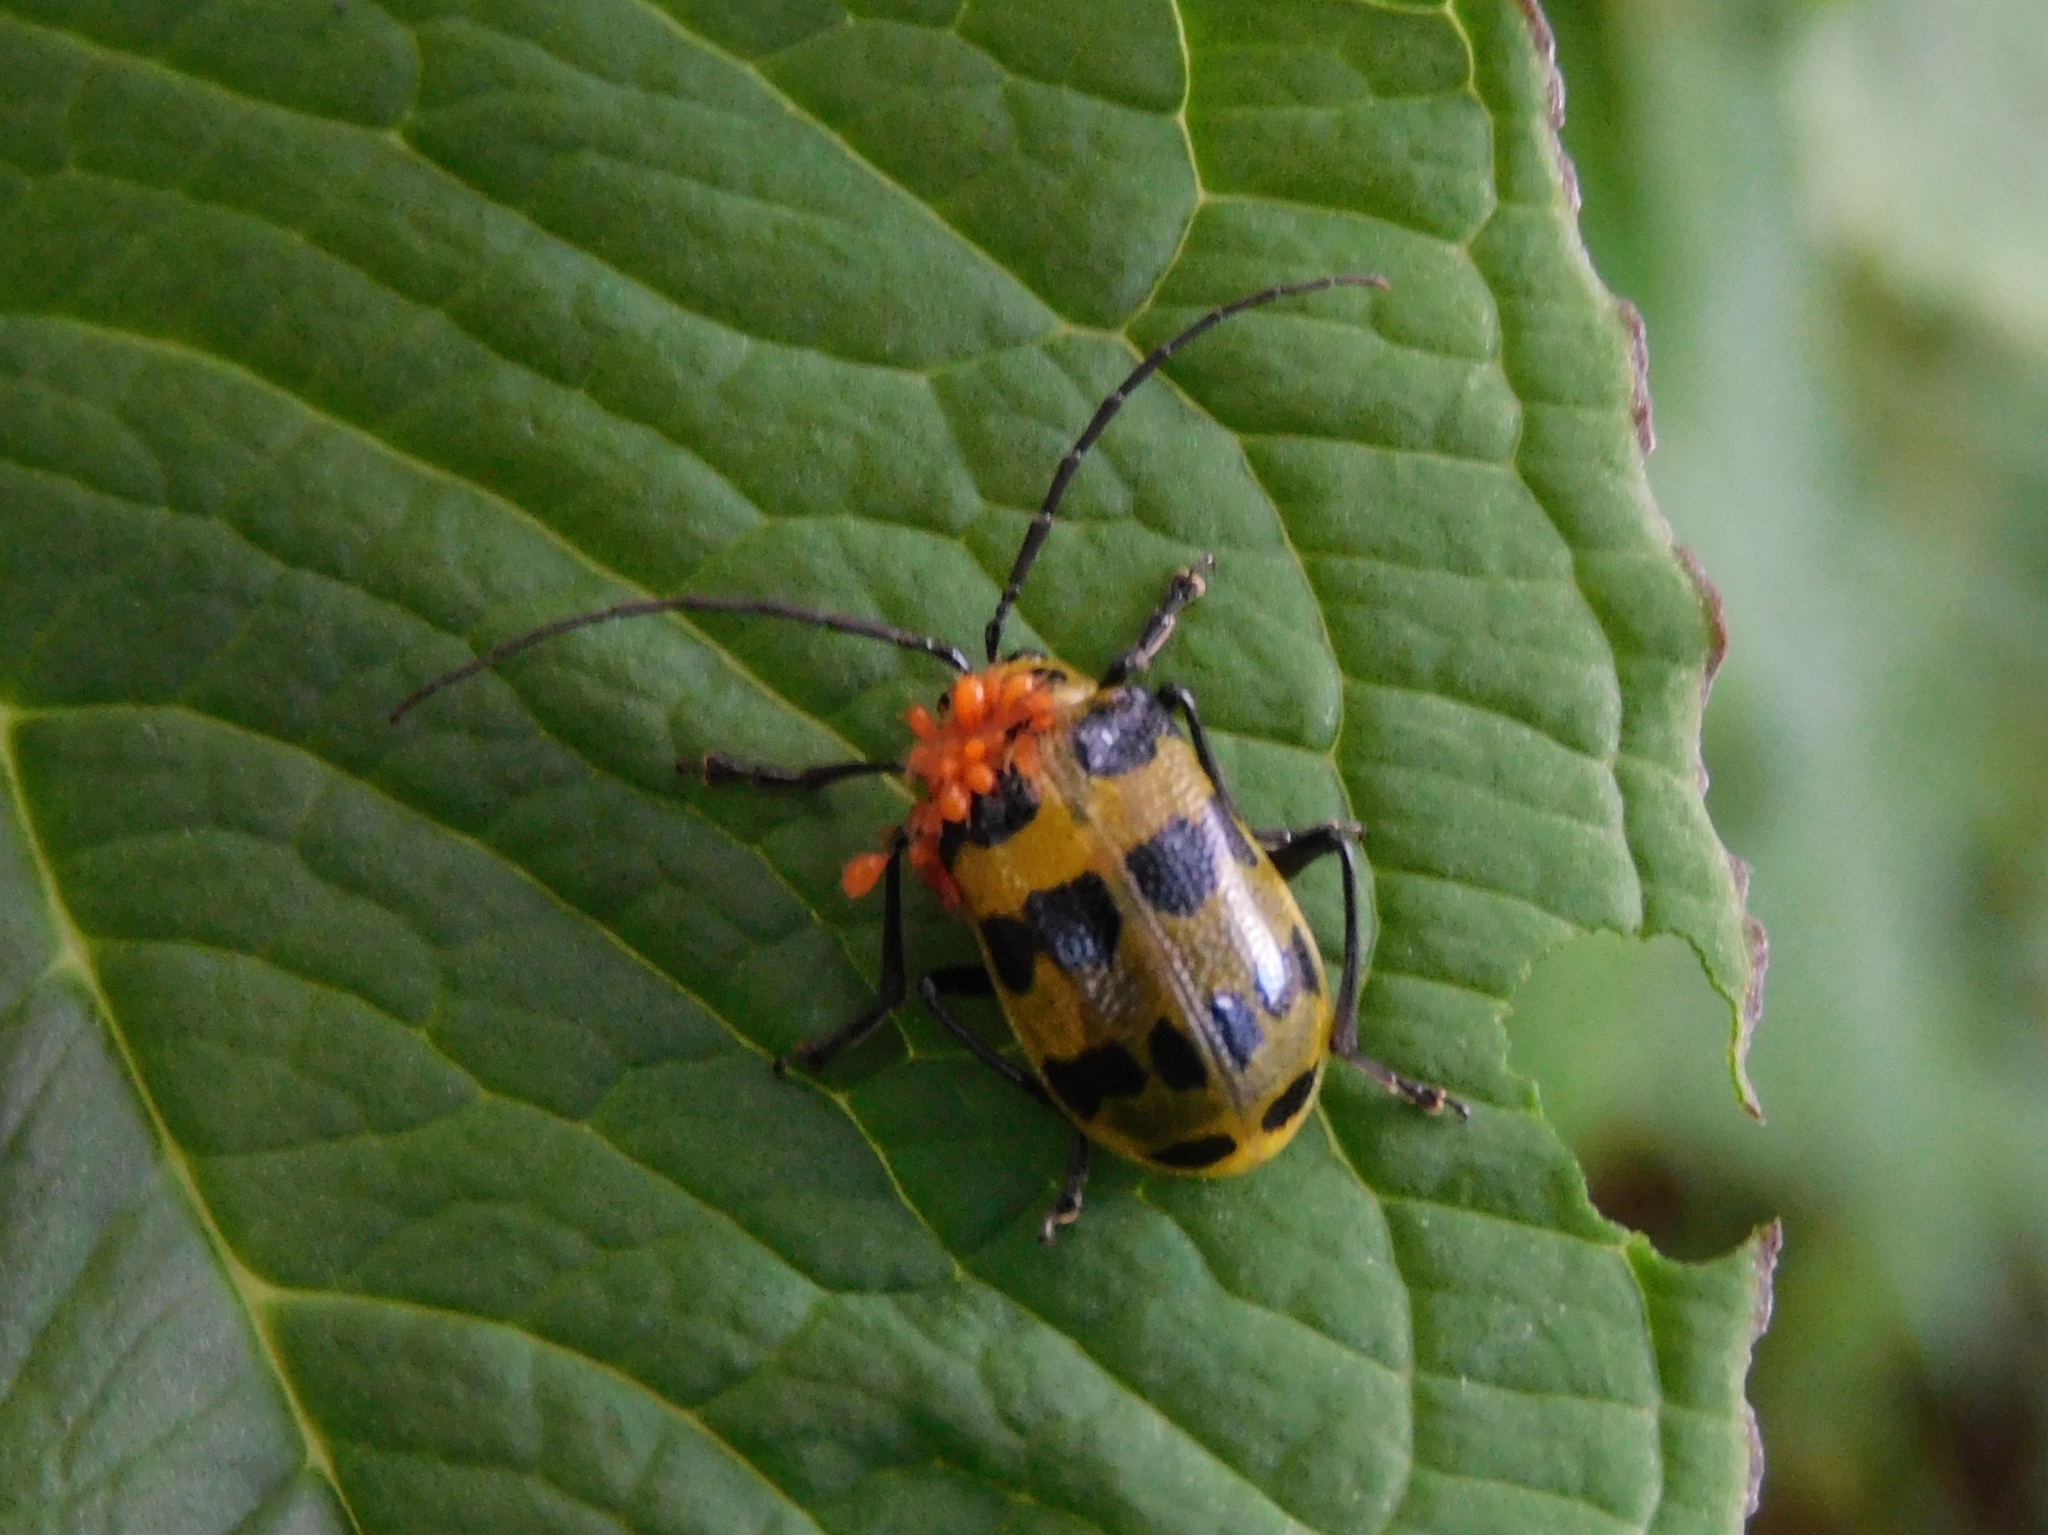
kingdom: Animalia
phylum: Arthropoda
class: Insecta
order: Coleoptera
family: Chrysomelidae
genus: Meristata
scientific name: Meristata quadrifasciata
